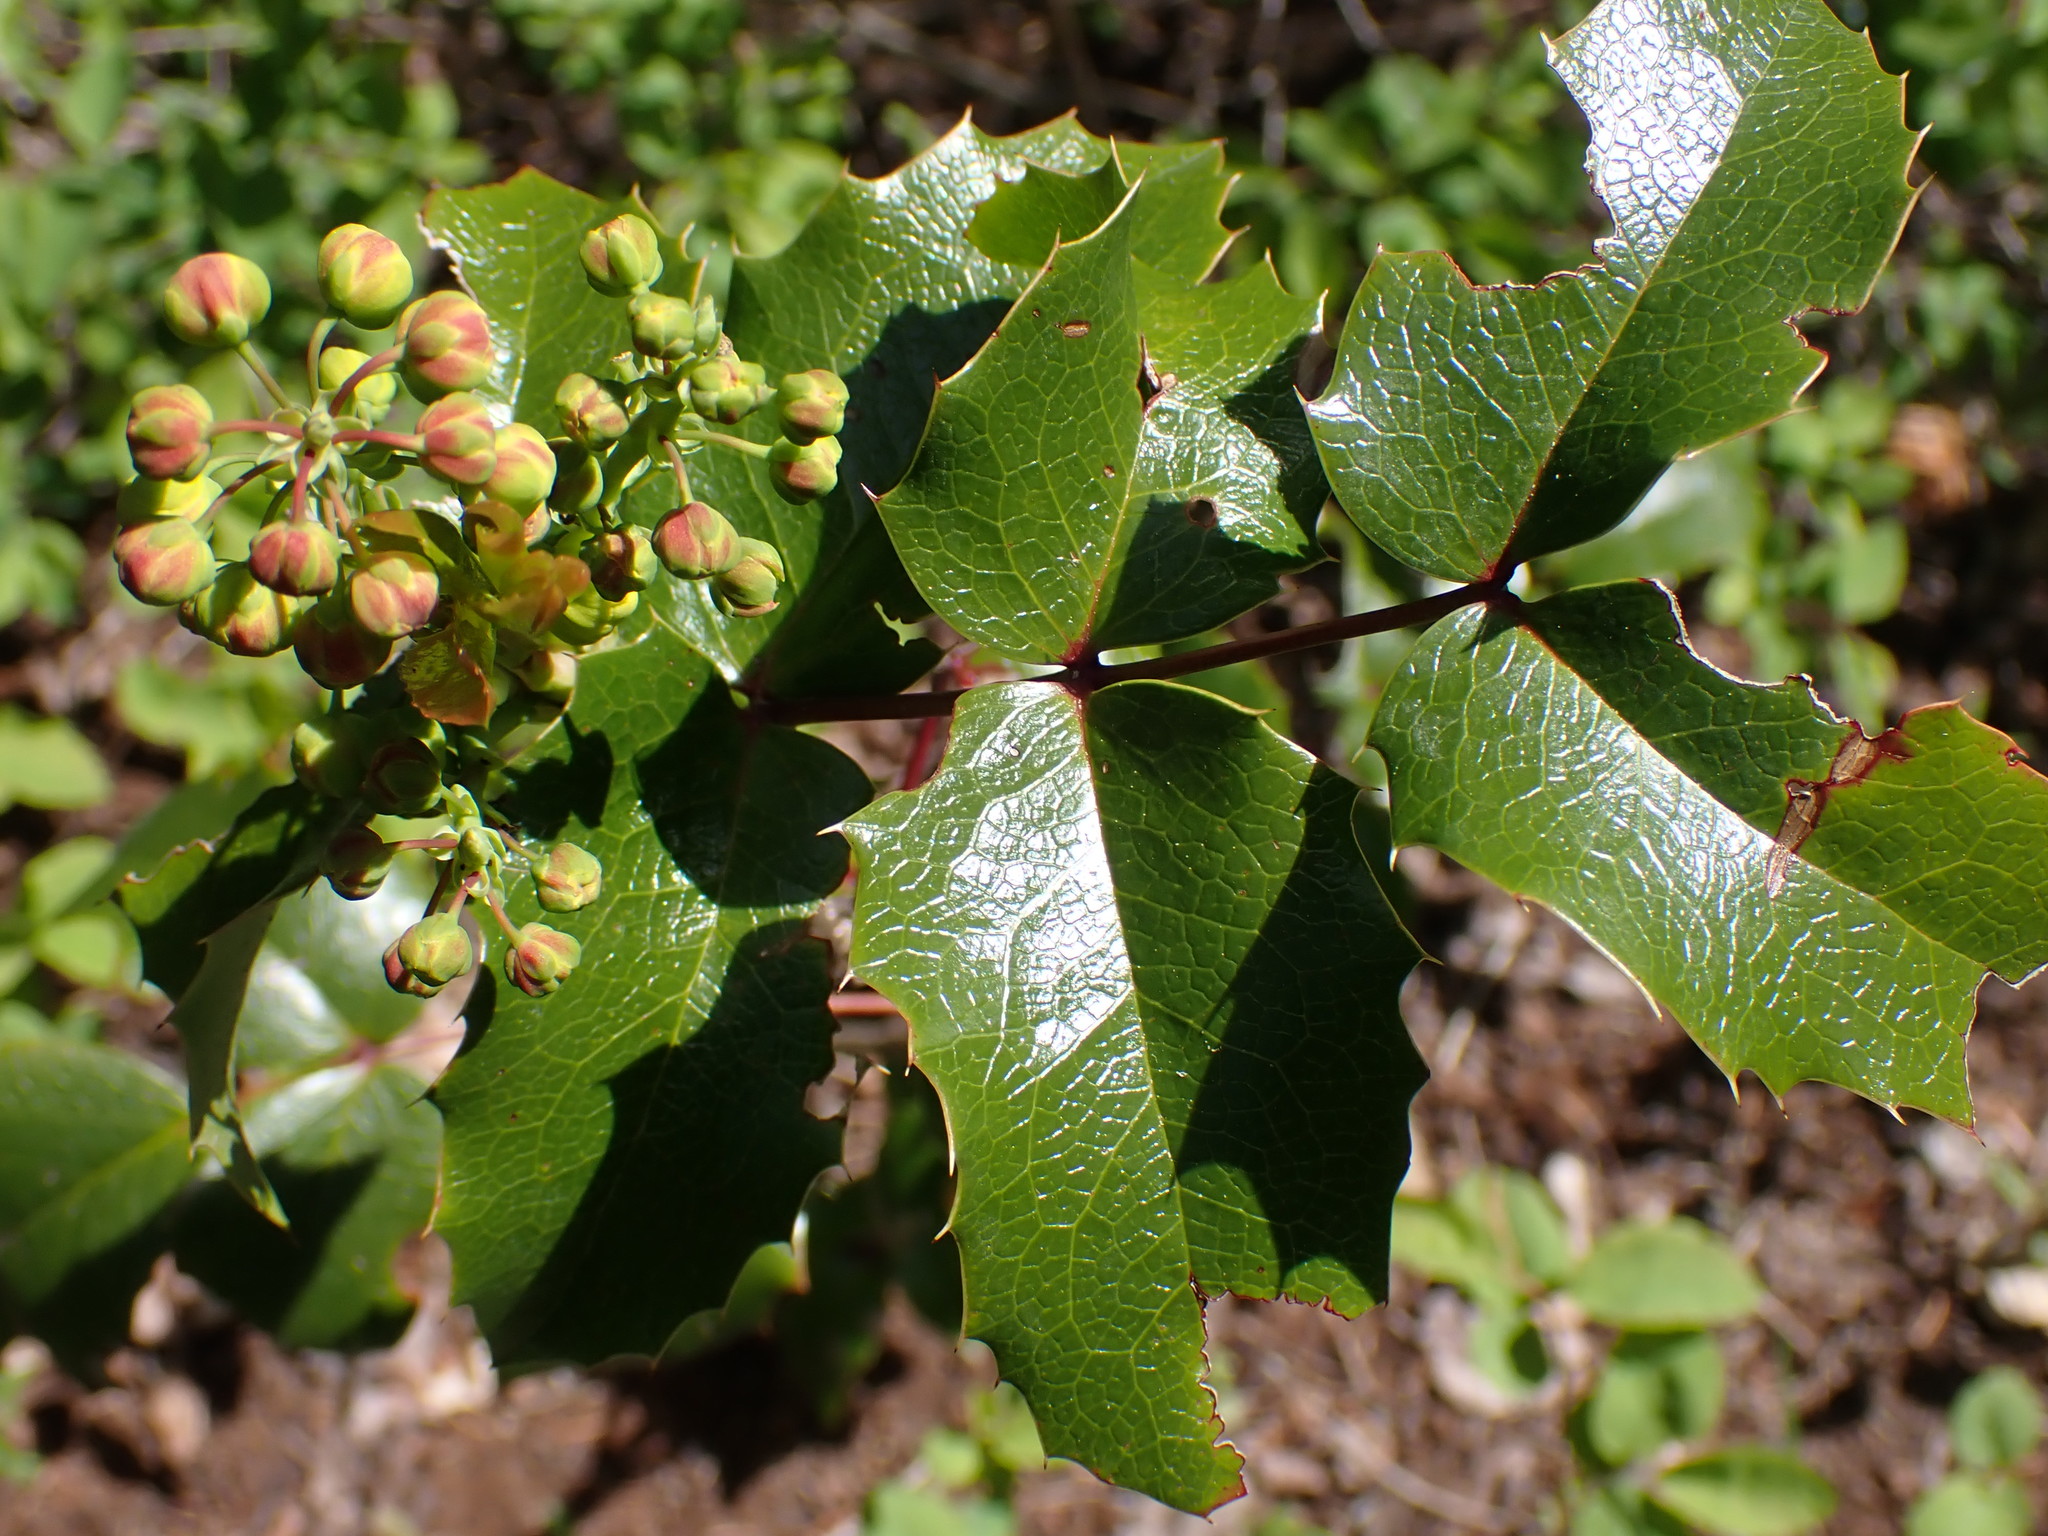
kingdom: Plantae
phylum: Tracheophyta
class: Magnoliopsida
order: Ranunculales
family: Berberidaceae
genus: Mahonia
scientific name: Mahonia aquifolium
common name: Oregon-grape
